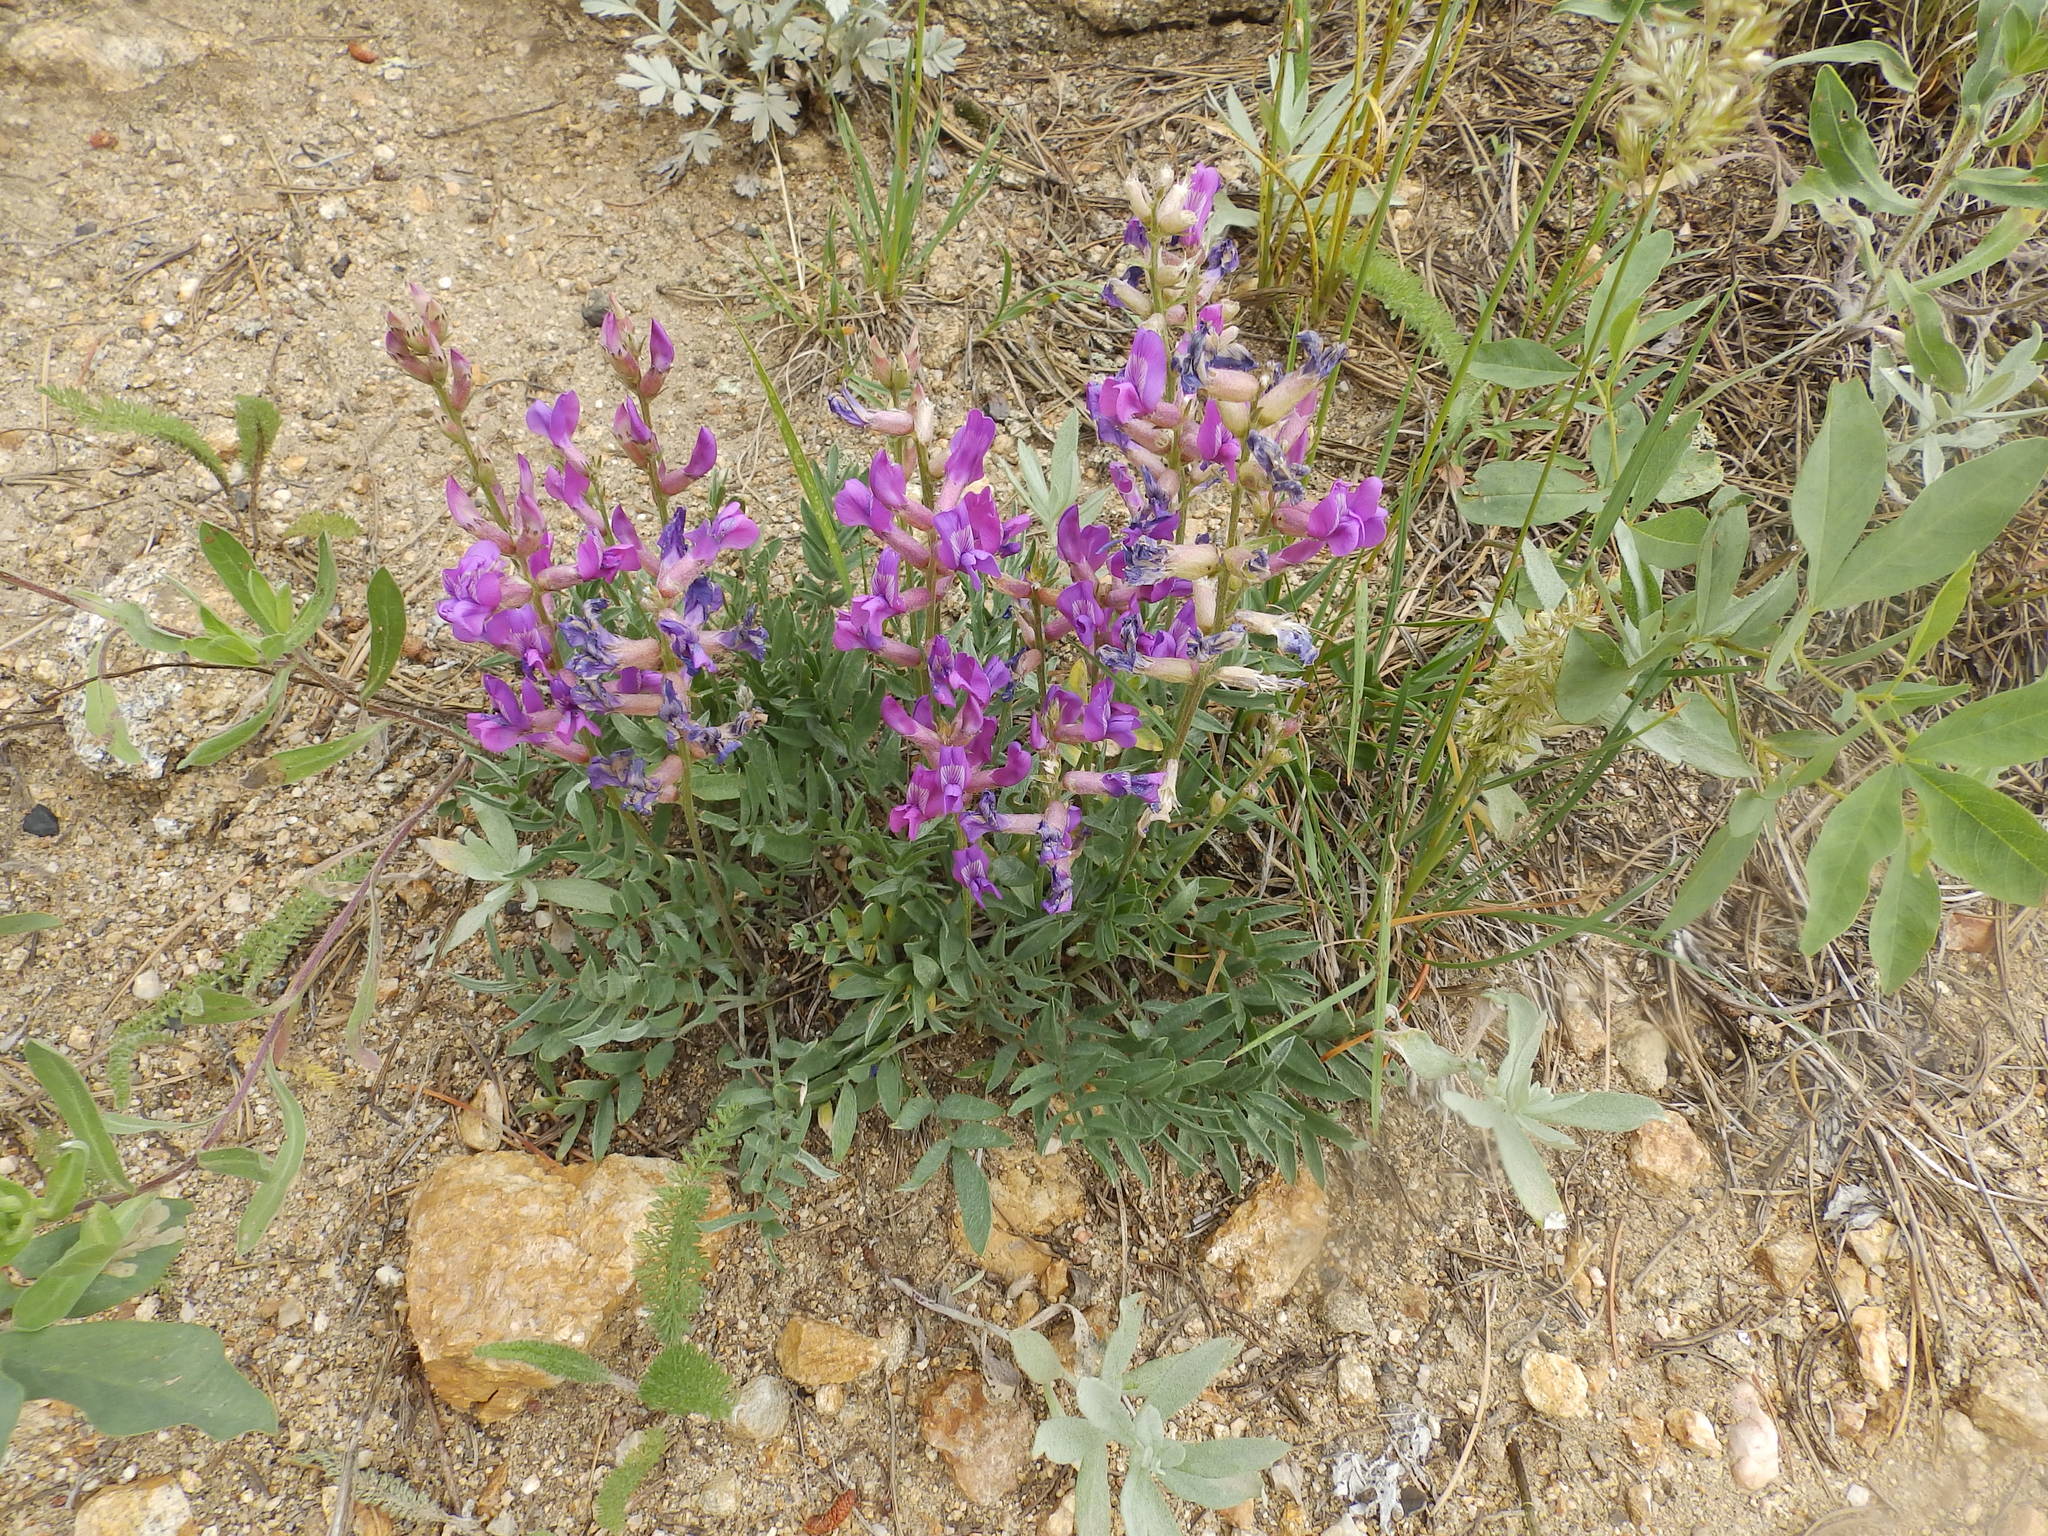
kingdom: Plantae
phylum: Tracheophyta
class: Magnoliopsida
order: Fabales
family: Fabaceae
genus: Oxytropis
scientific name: Oxytropis lambertii
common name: Purple locoweed
